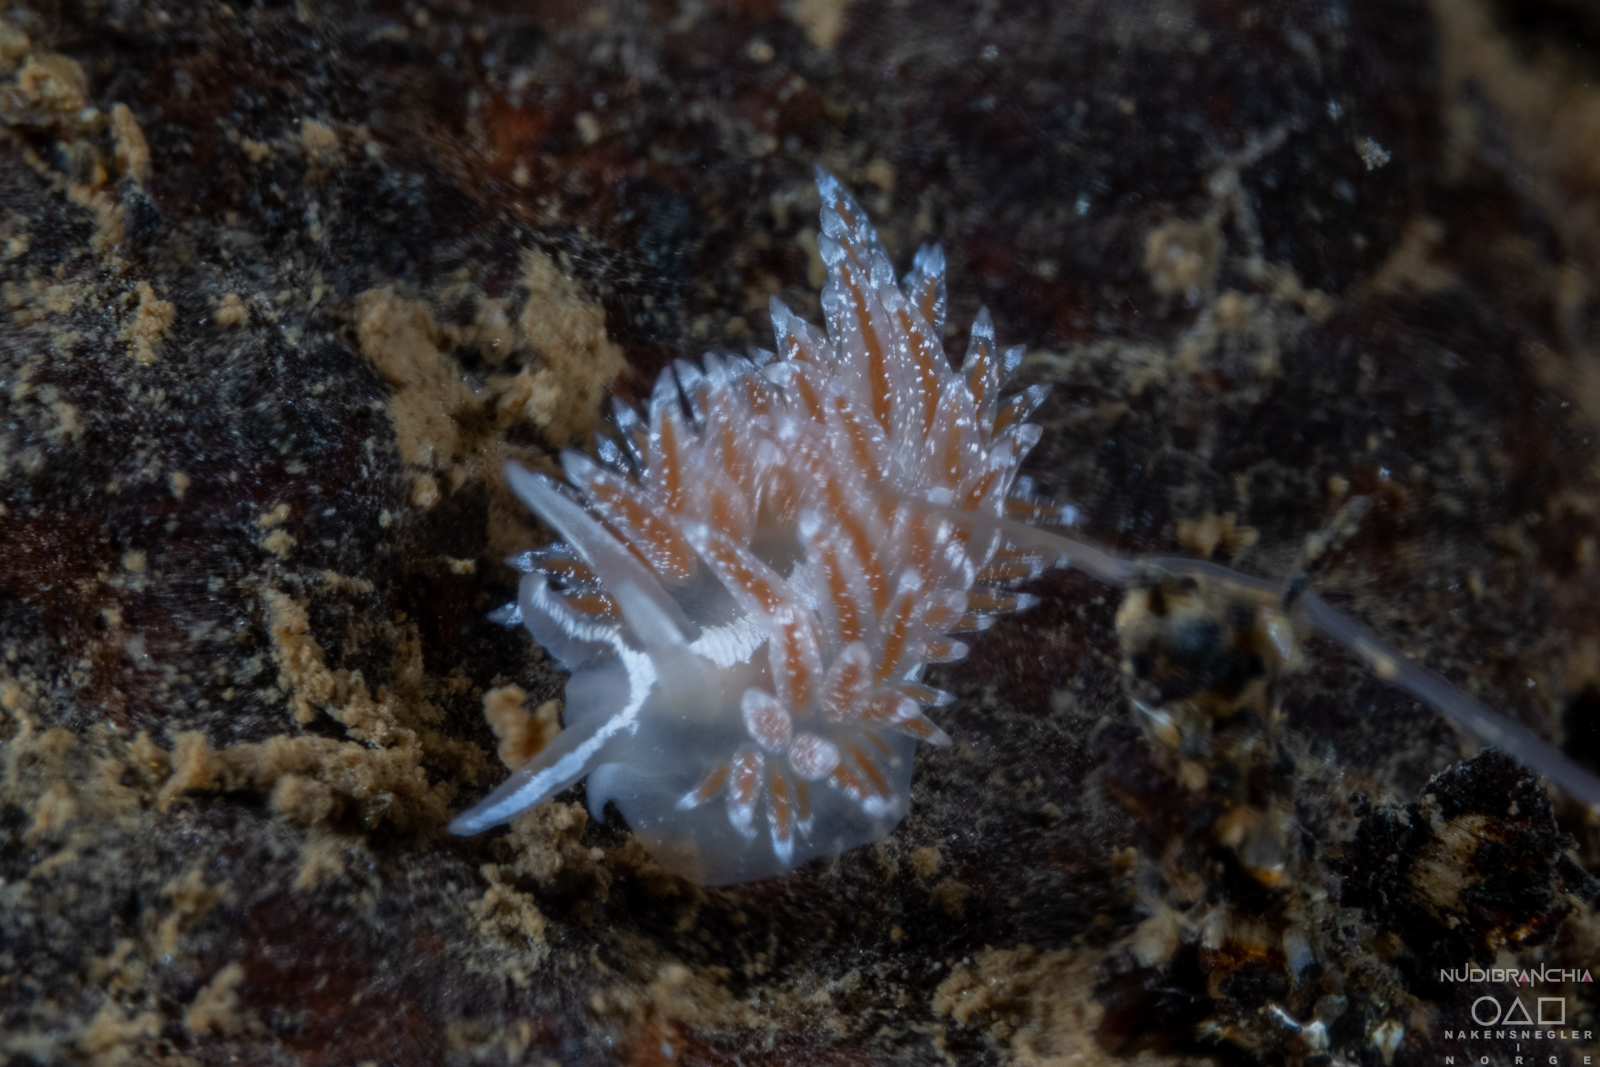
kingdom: Animalia
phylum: Mollusca
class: Gastropoda
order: Nudibranchia
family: Coryphellidae
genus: Coryphella
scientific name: Coryphella orjani
